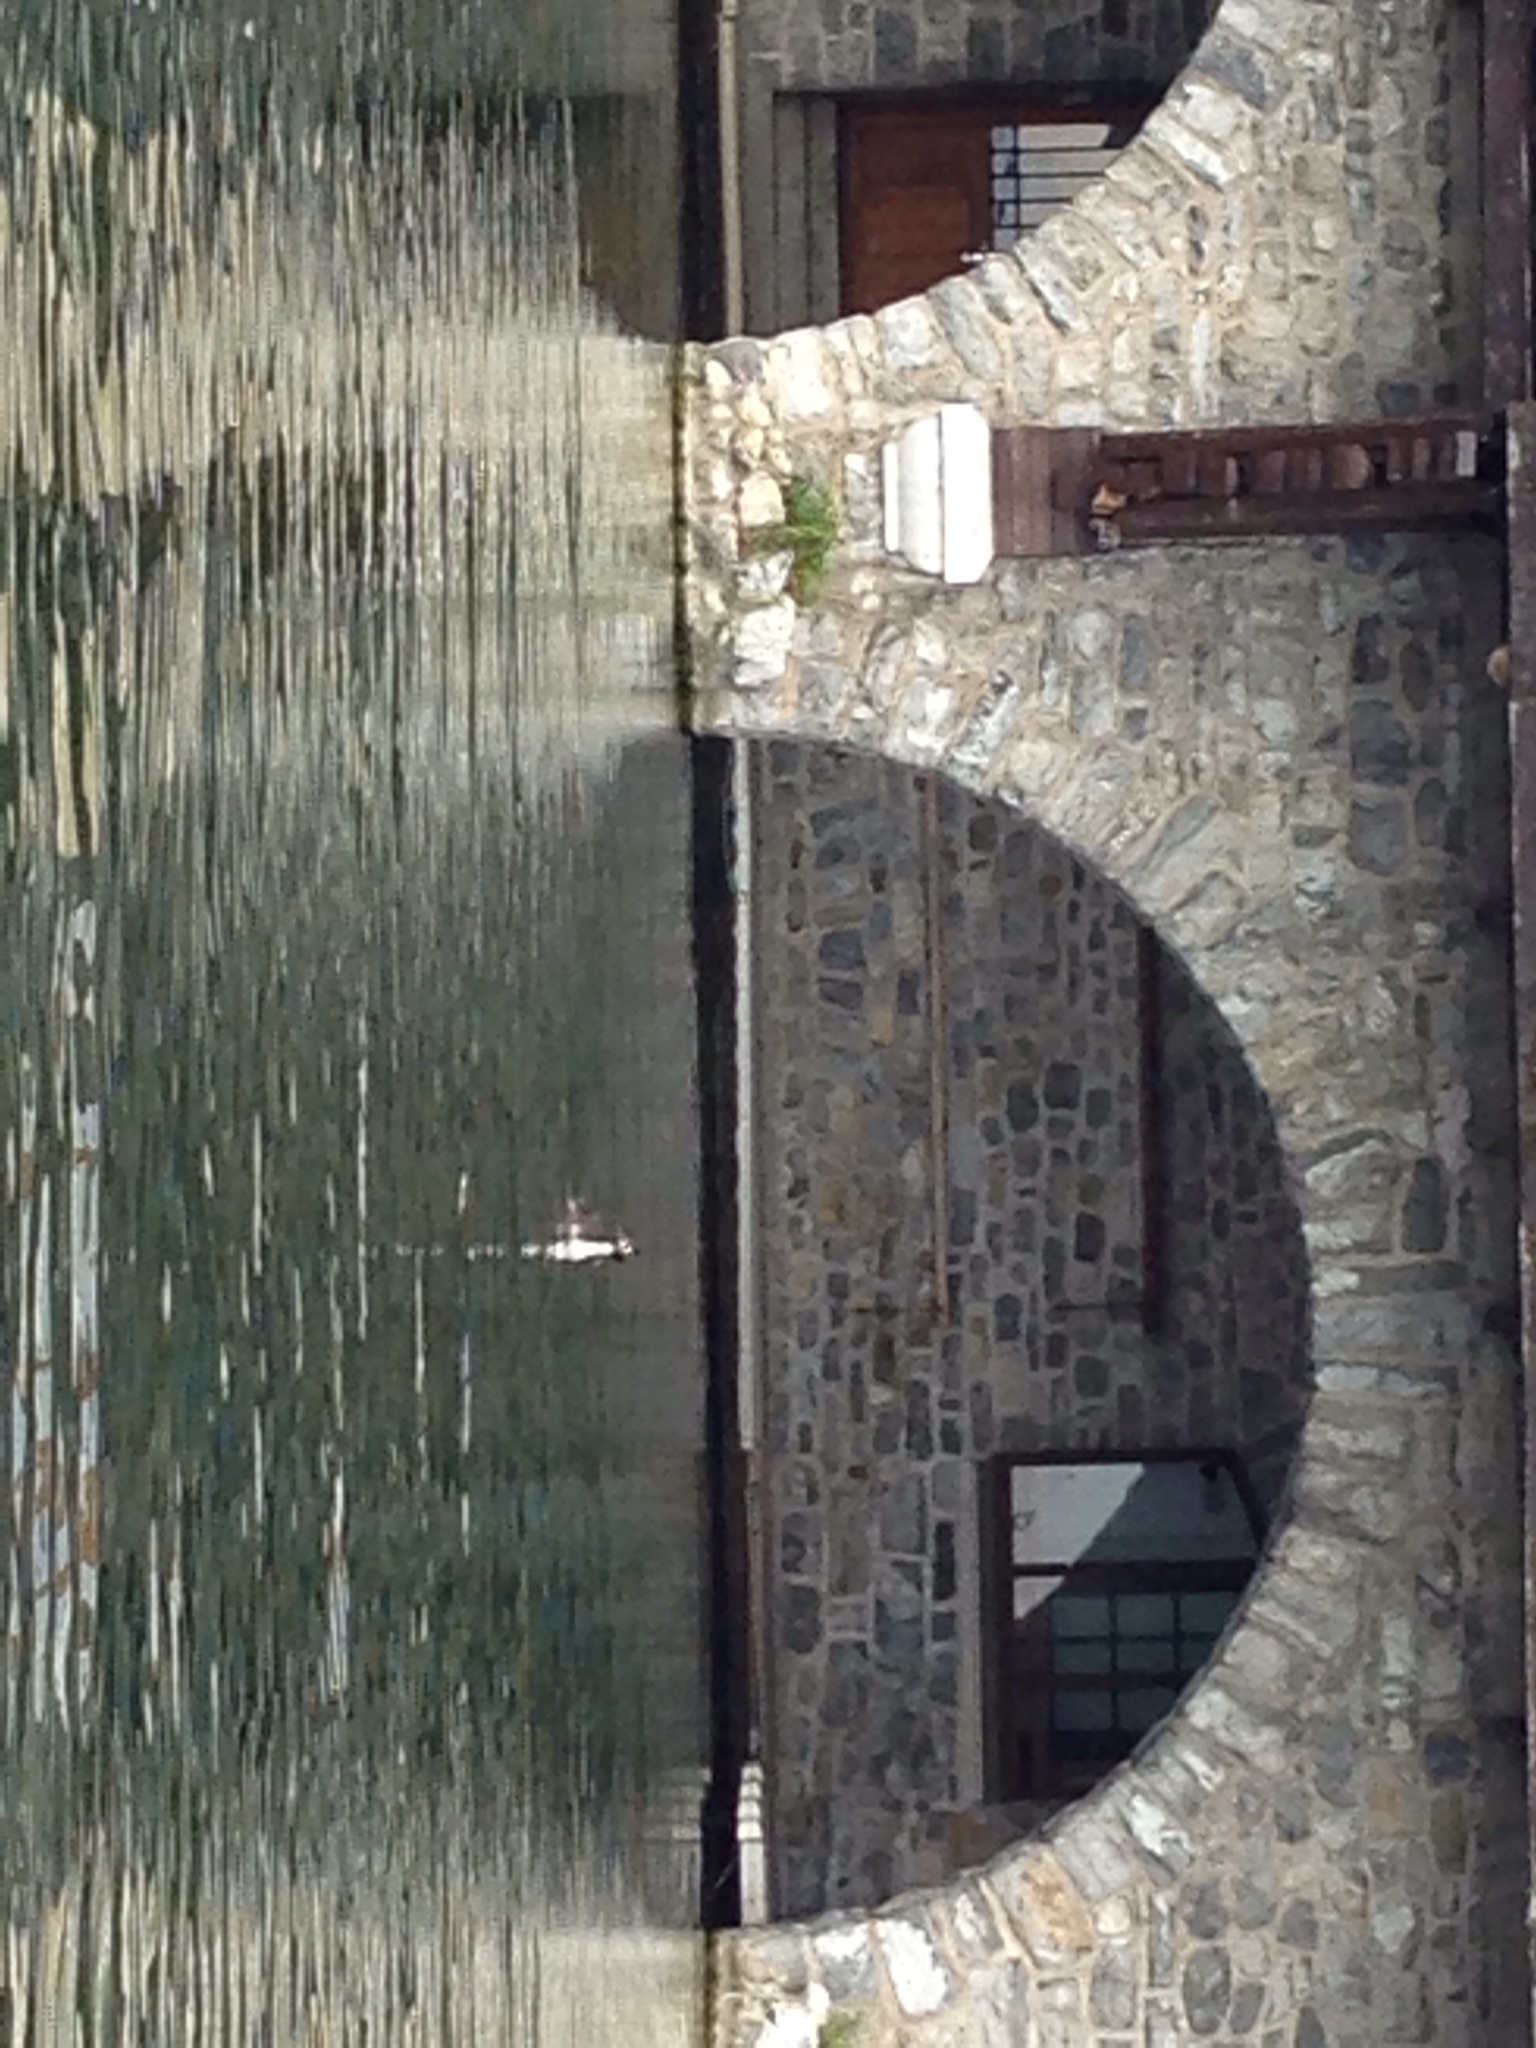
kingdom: Animalia
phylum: Chordata
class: Aves
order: Podicipediformes
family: Podicipedidae
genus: Podiceps
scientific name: Podiceps cristatus
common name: Great crested grebe
